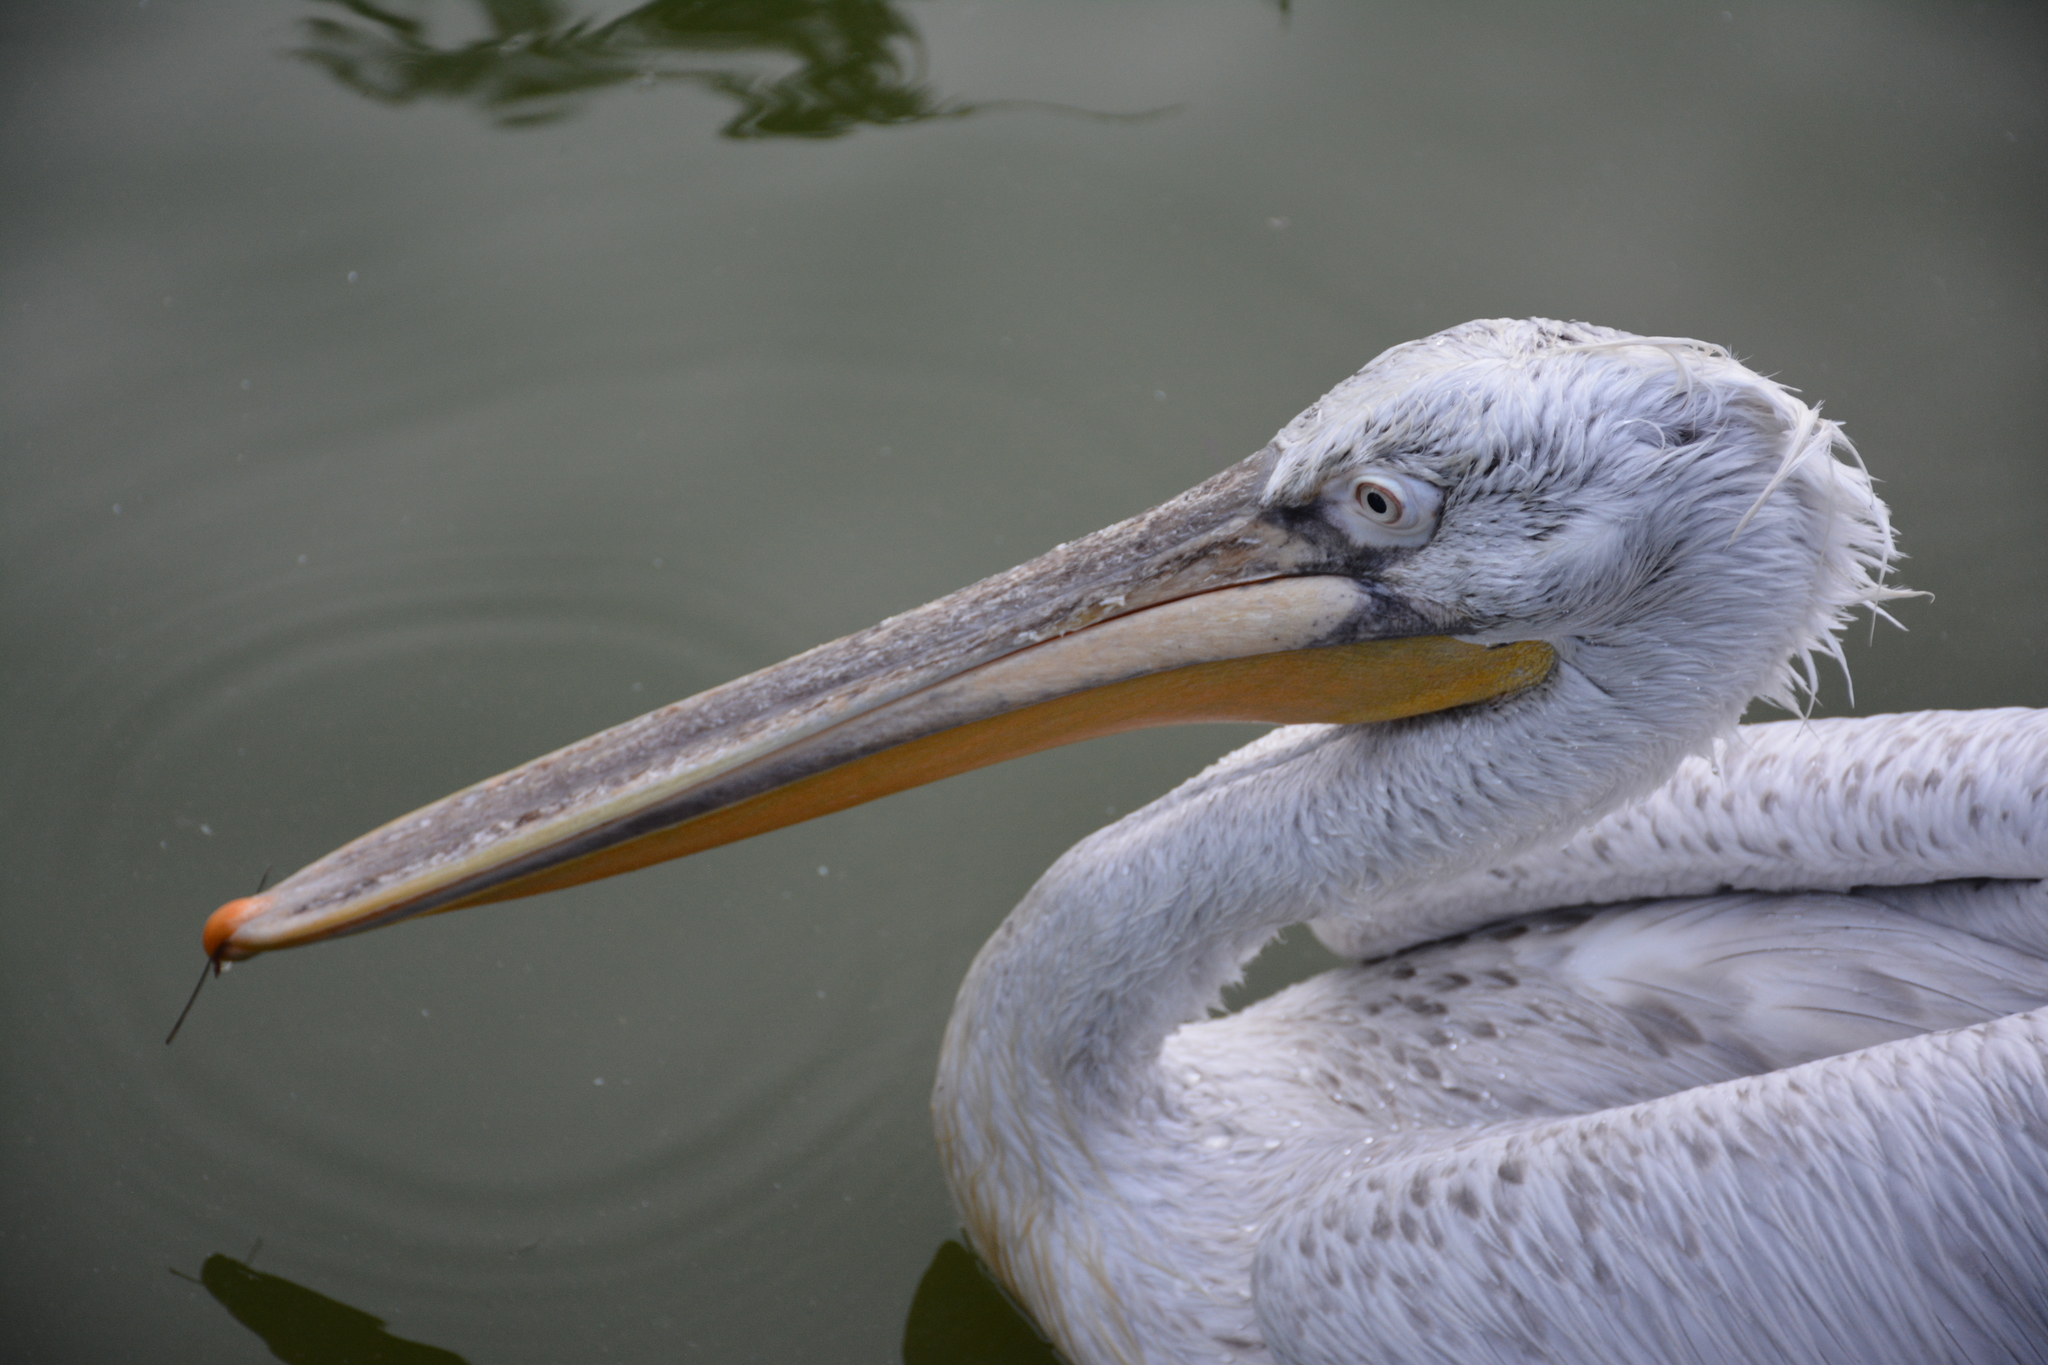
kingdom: Animalia
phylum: Chordata
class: Aves
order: Pelecaniformes
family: Pelecanidae
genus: Pelecanus
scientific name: Pelecanus crispus
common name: Dalmatian pelican
